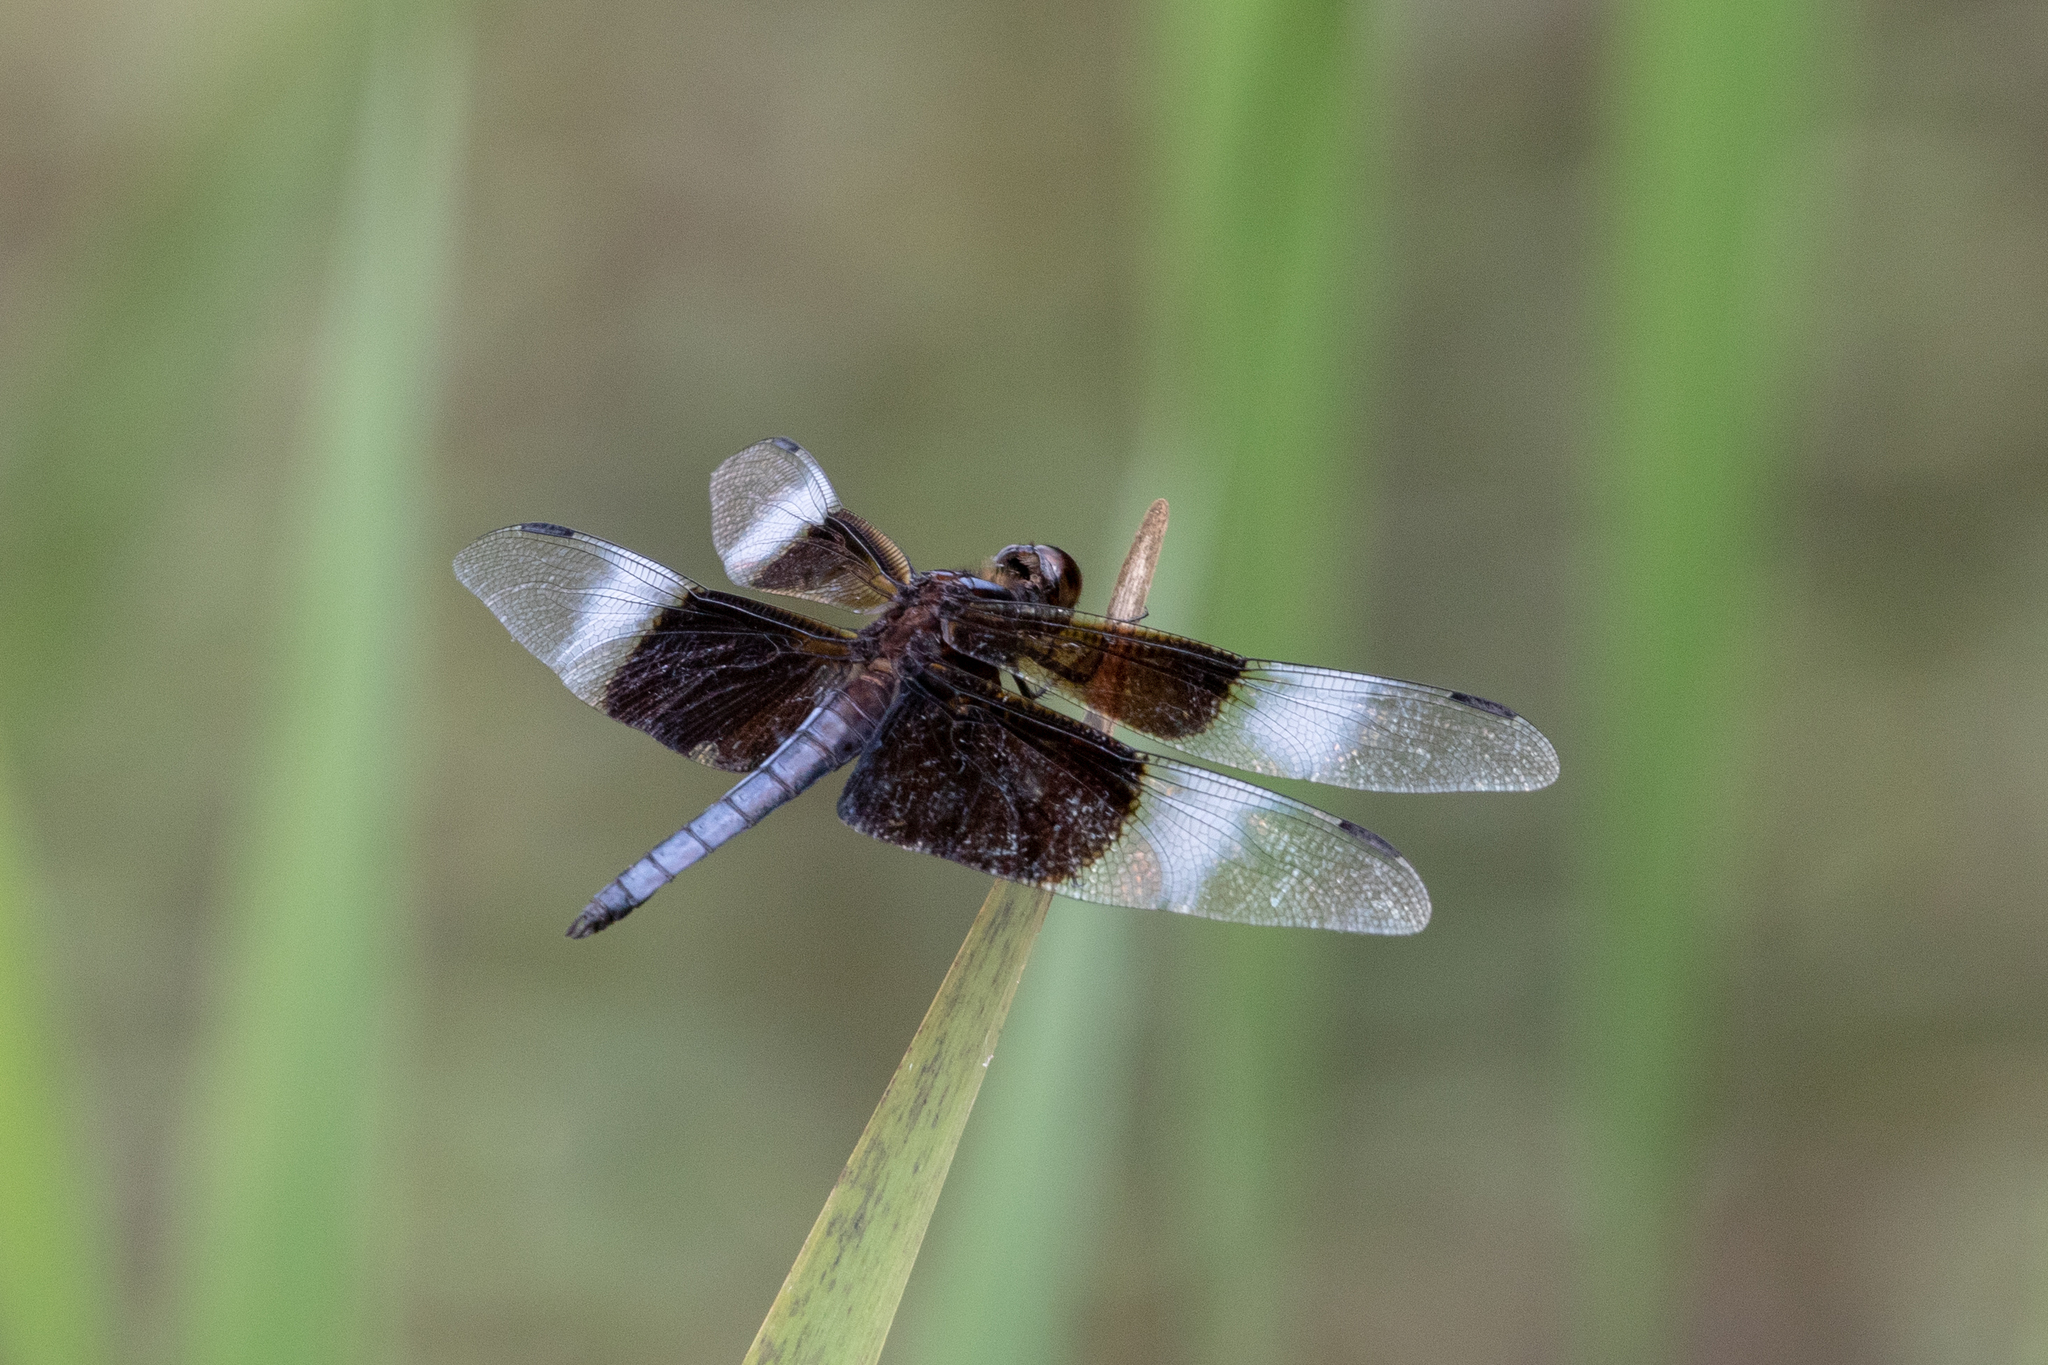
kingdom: Animalia
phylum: Arthropoda
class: Insecta
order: Odonata
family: Libellulidae
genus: Libellula
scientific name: Libellula luctuosa
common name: Widow skimmer
